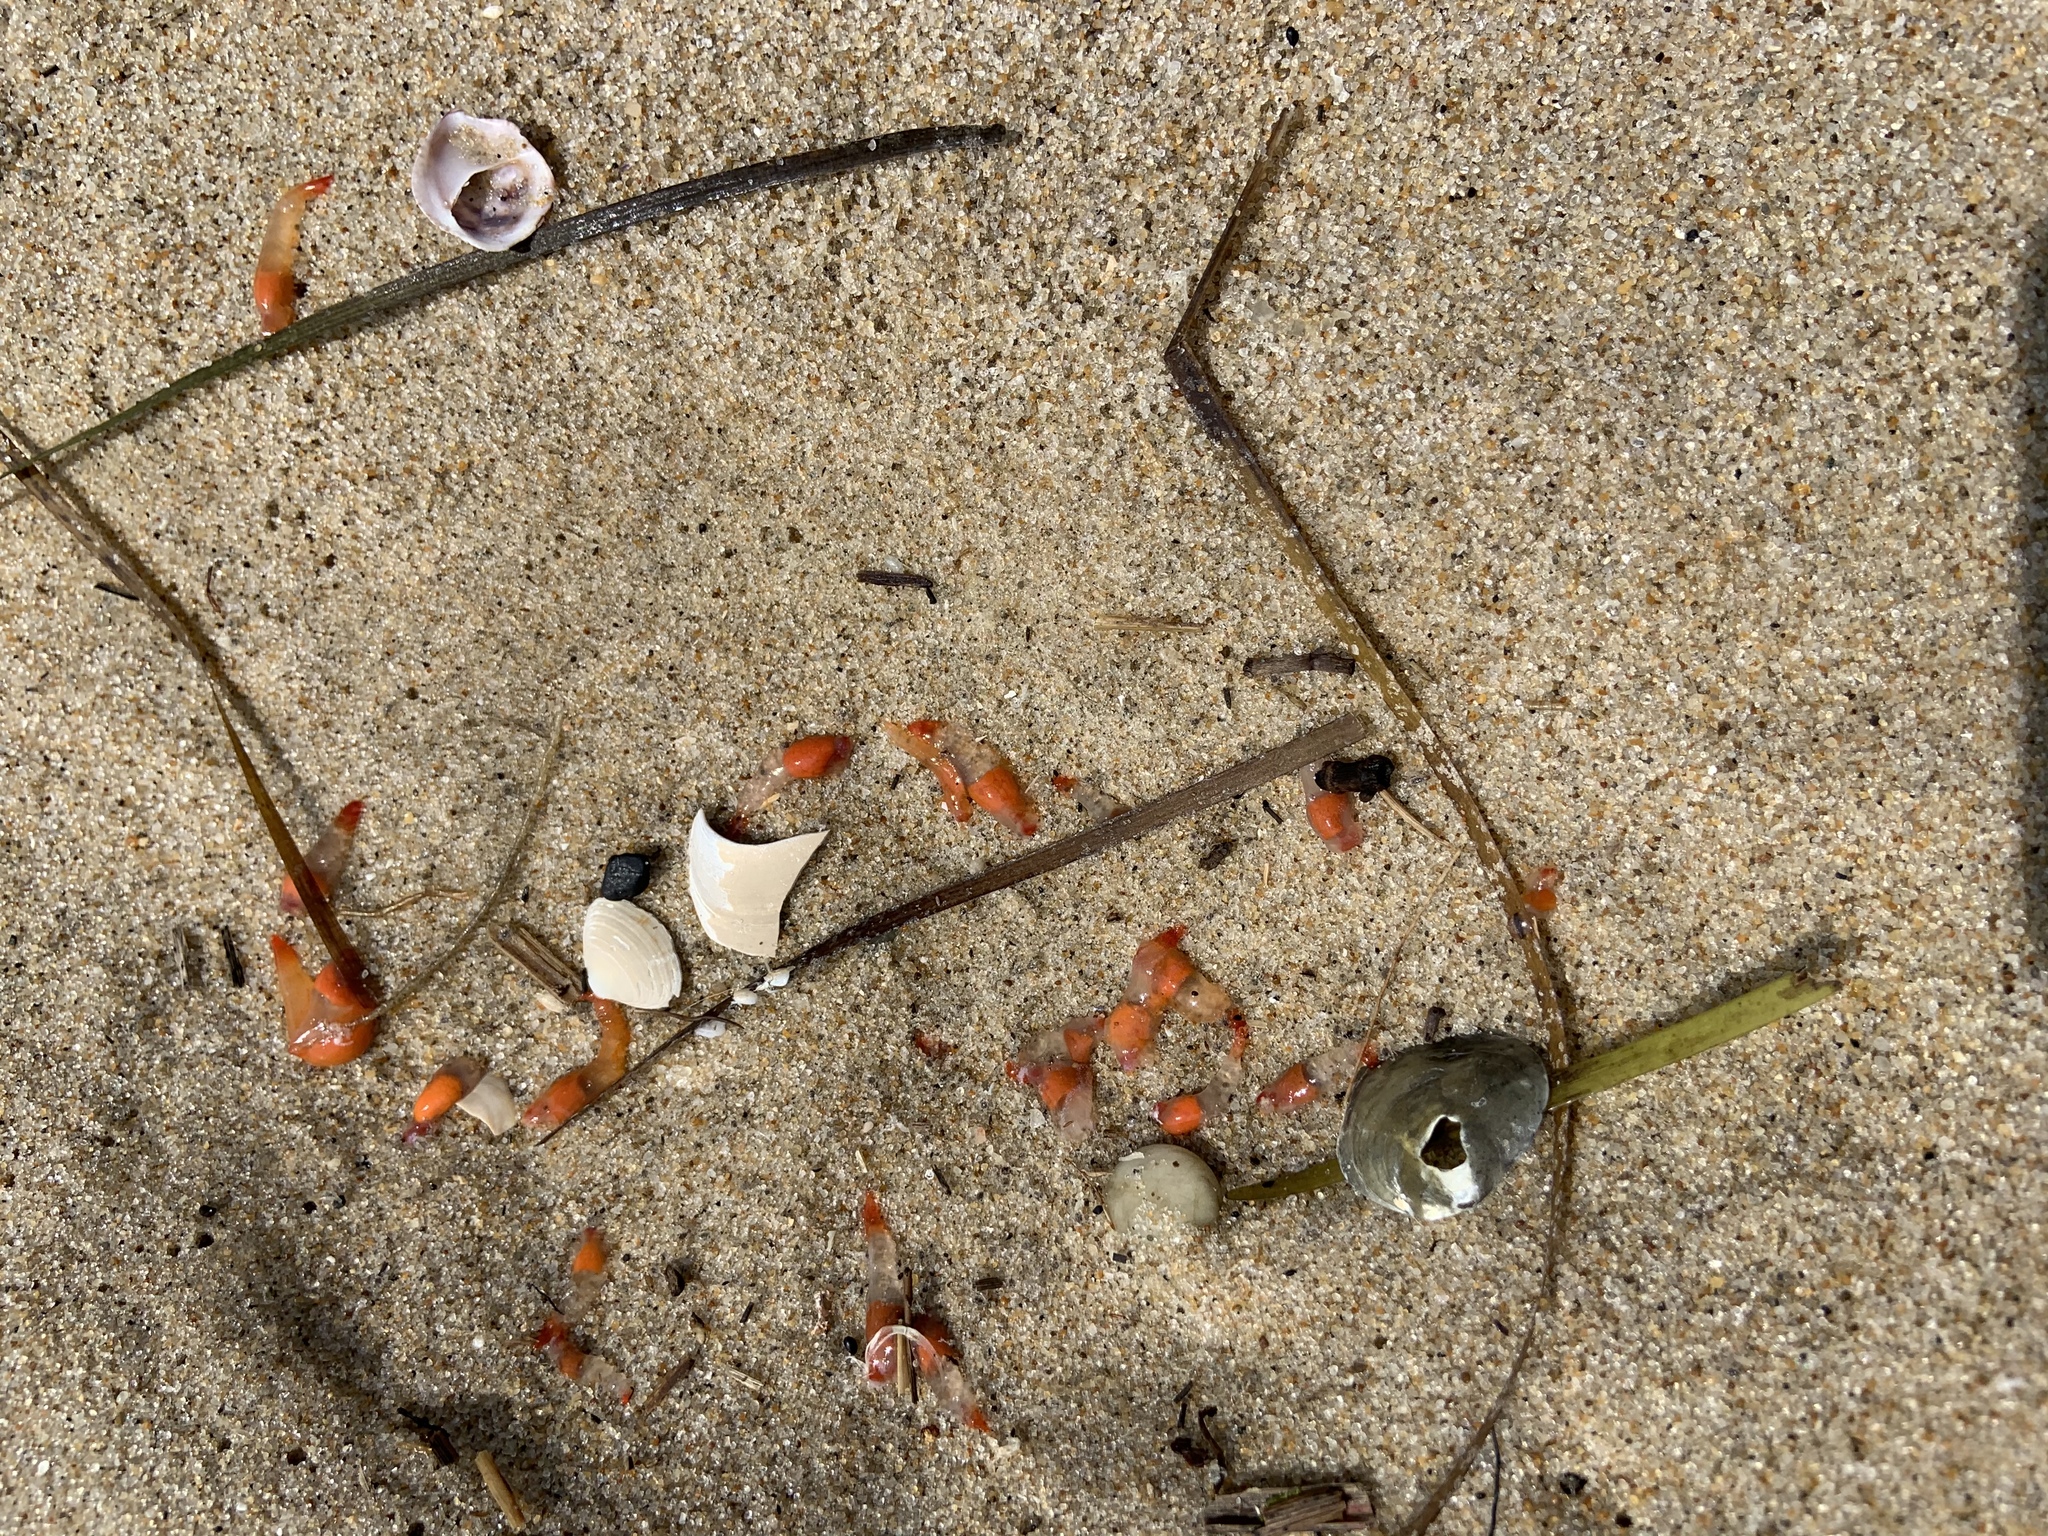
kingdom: Animalia
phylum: Mollusca
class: Gastropoda
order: Pteropoda
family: Clionidae
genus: Clione
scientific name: Clione limacina
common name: Common clione
